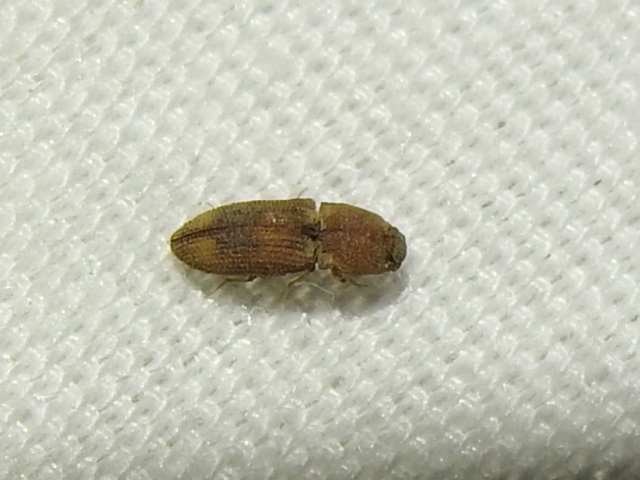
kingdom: Animalia
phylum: Arthropoda
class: Insecta
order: Coleoptera
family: Elateridae
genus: Meristhus
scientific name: Meristhus
